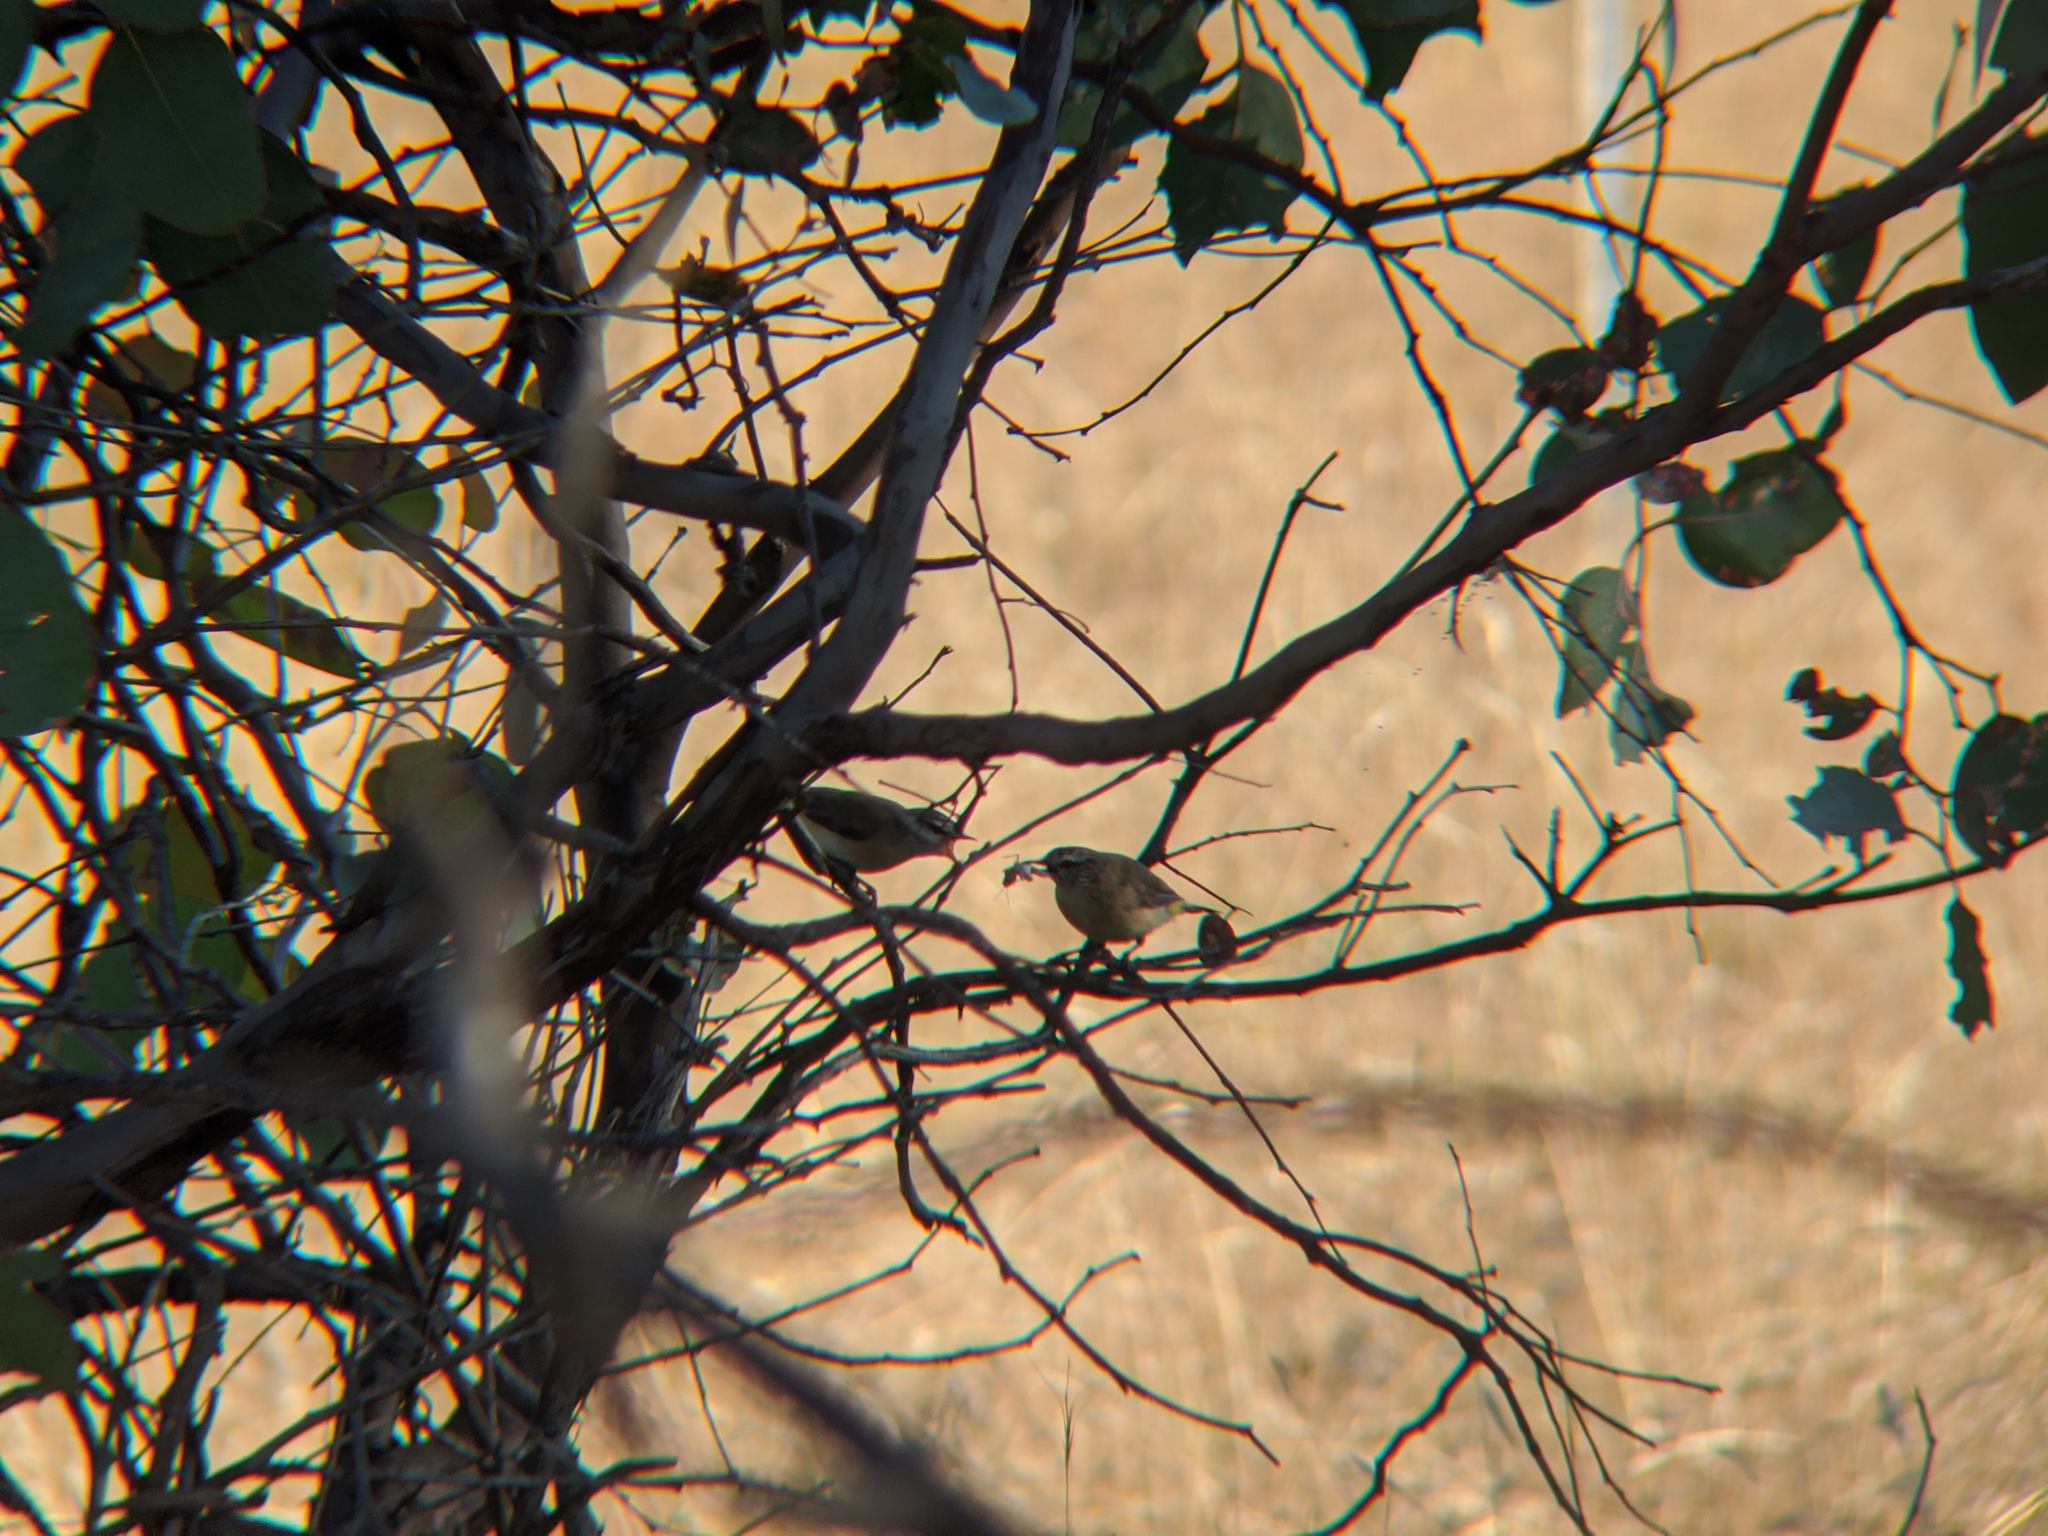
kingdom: Animalia
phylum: Chordata
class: Aves
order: Passeriformes
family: Acanthizidae
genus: Acanthiza
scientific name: Acanthiza chrysorrhoa
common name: Yellow-rumped thornbill
